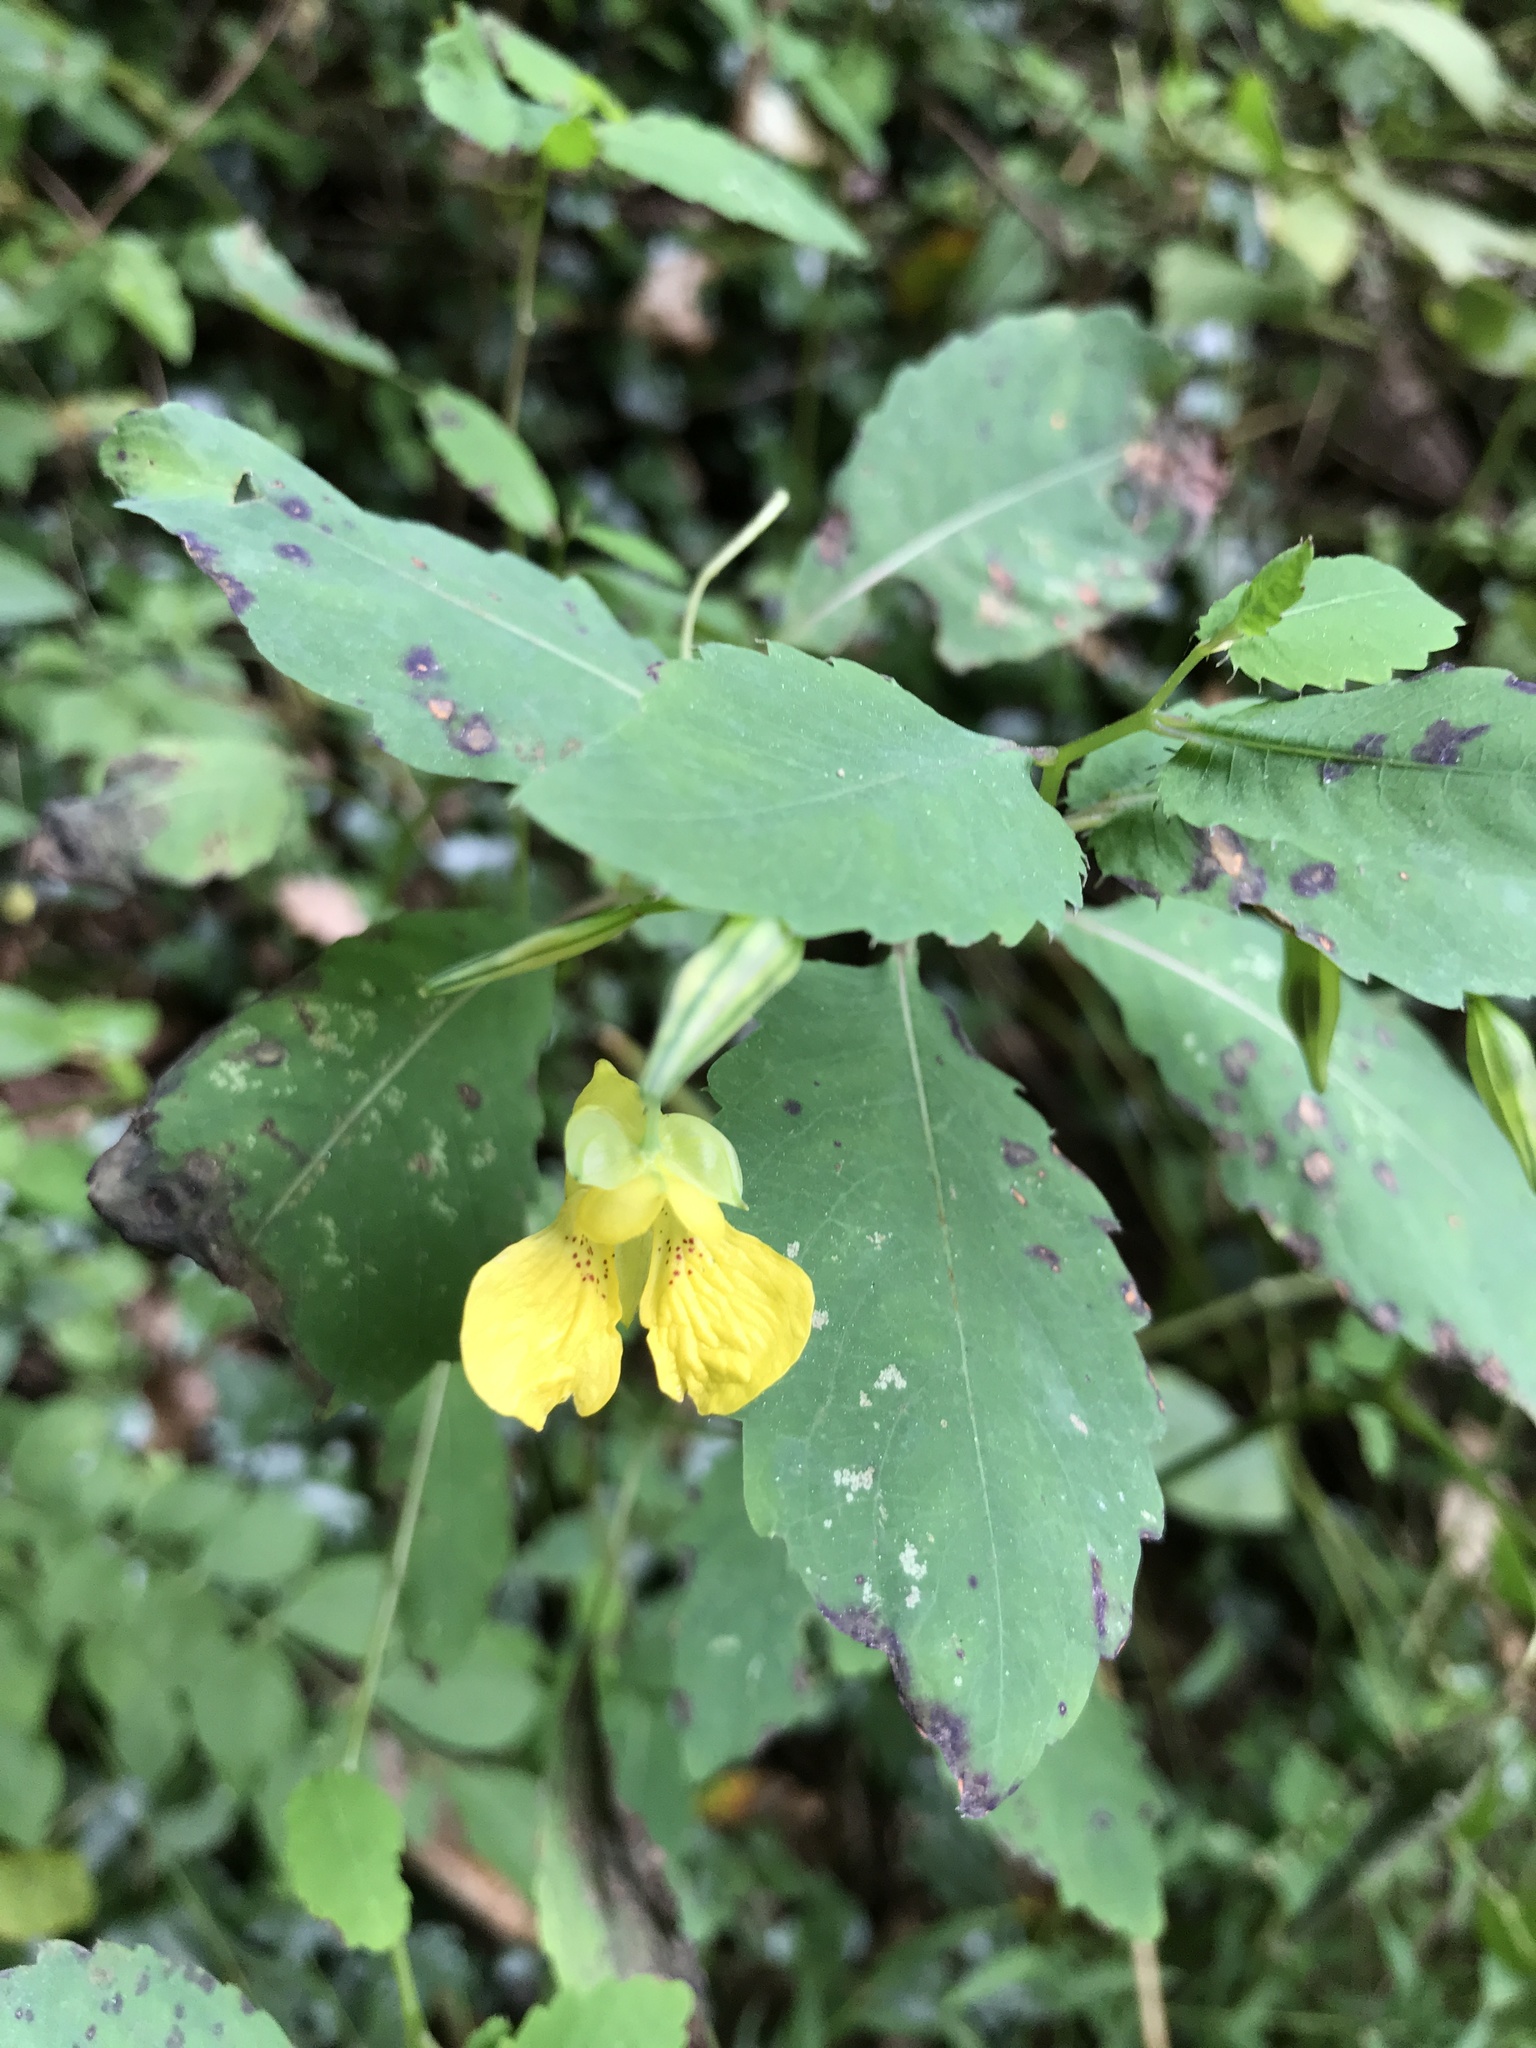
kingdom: Plantae
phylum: Tracheophyta
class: Magnoliopsida
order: Ericales
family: Balsaminaceae
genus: Impatiens
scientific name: Impatiens pallida
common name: Pale snapweed
